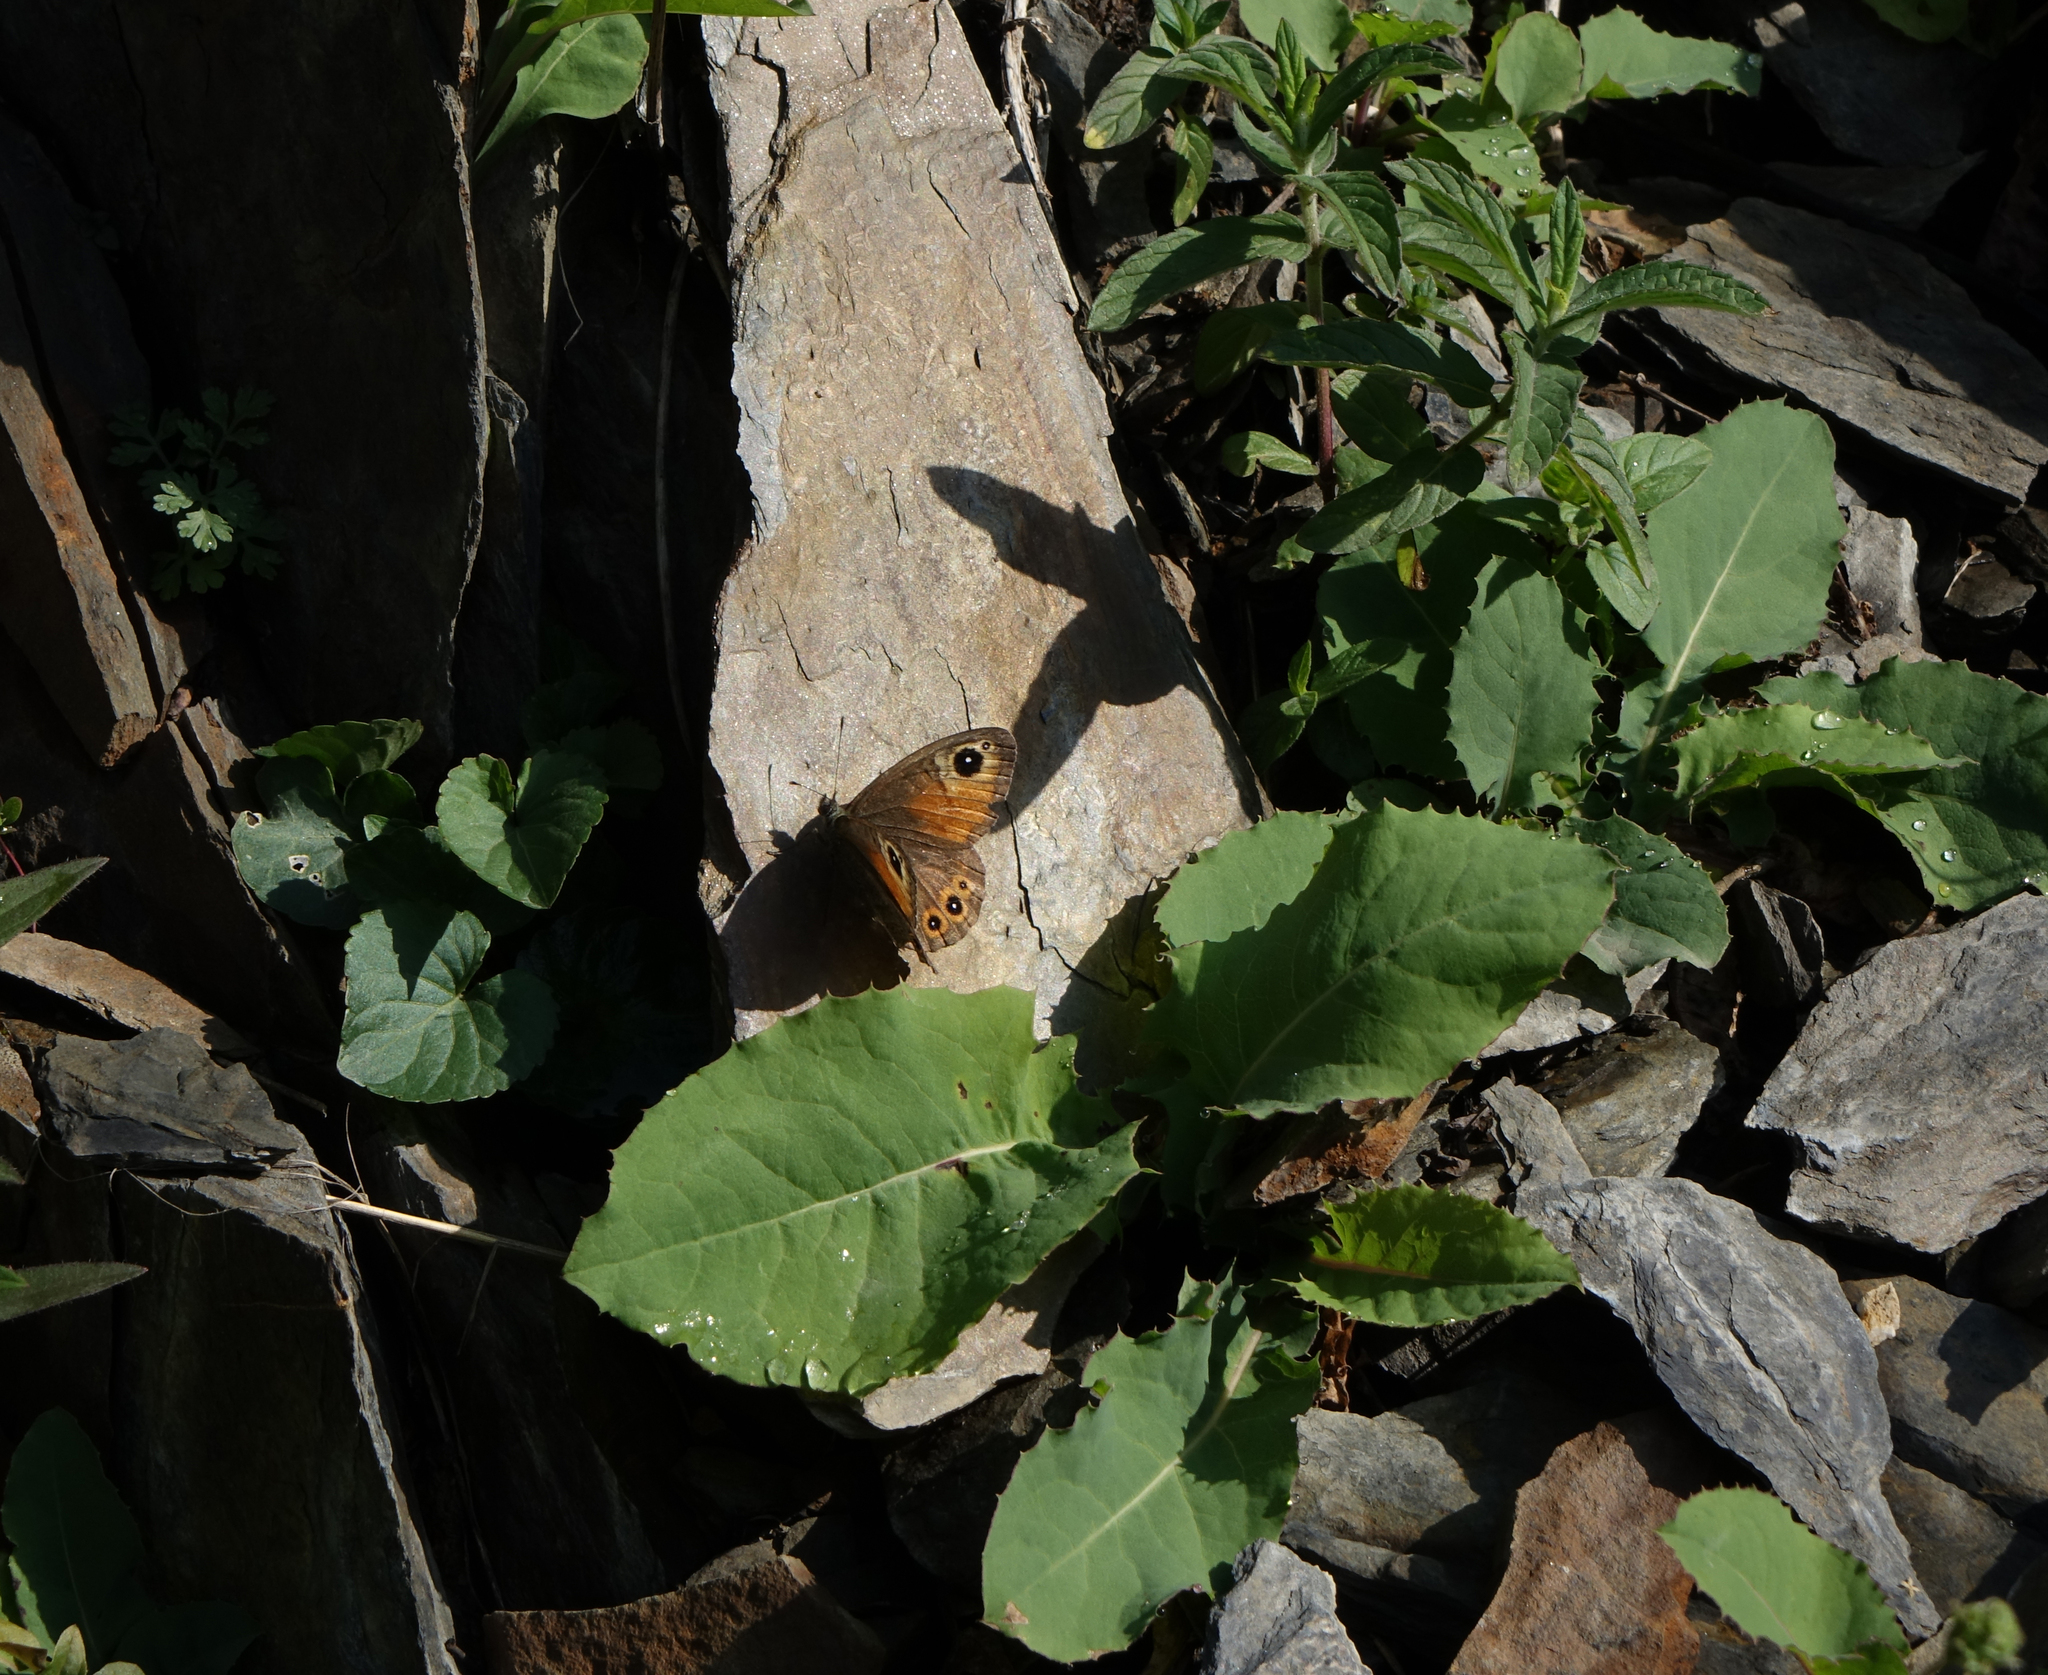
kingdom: Animalia
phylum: Arthropoda
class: Insecta
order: Lepidoptera
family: Nymphalidae
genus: Pararge
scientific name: Pararge Lasiommata maera
